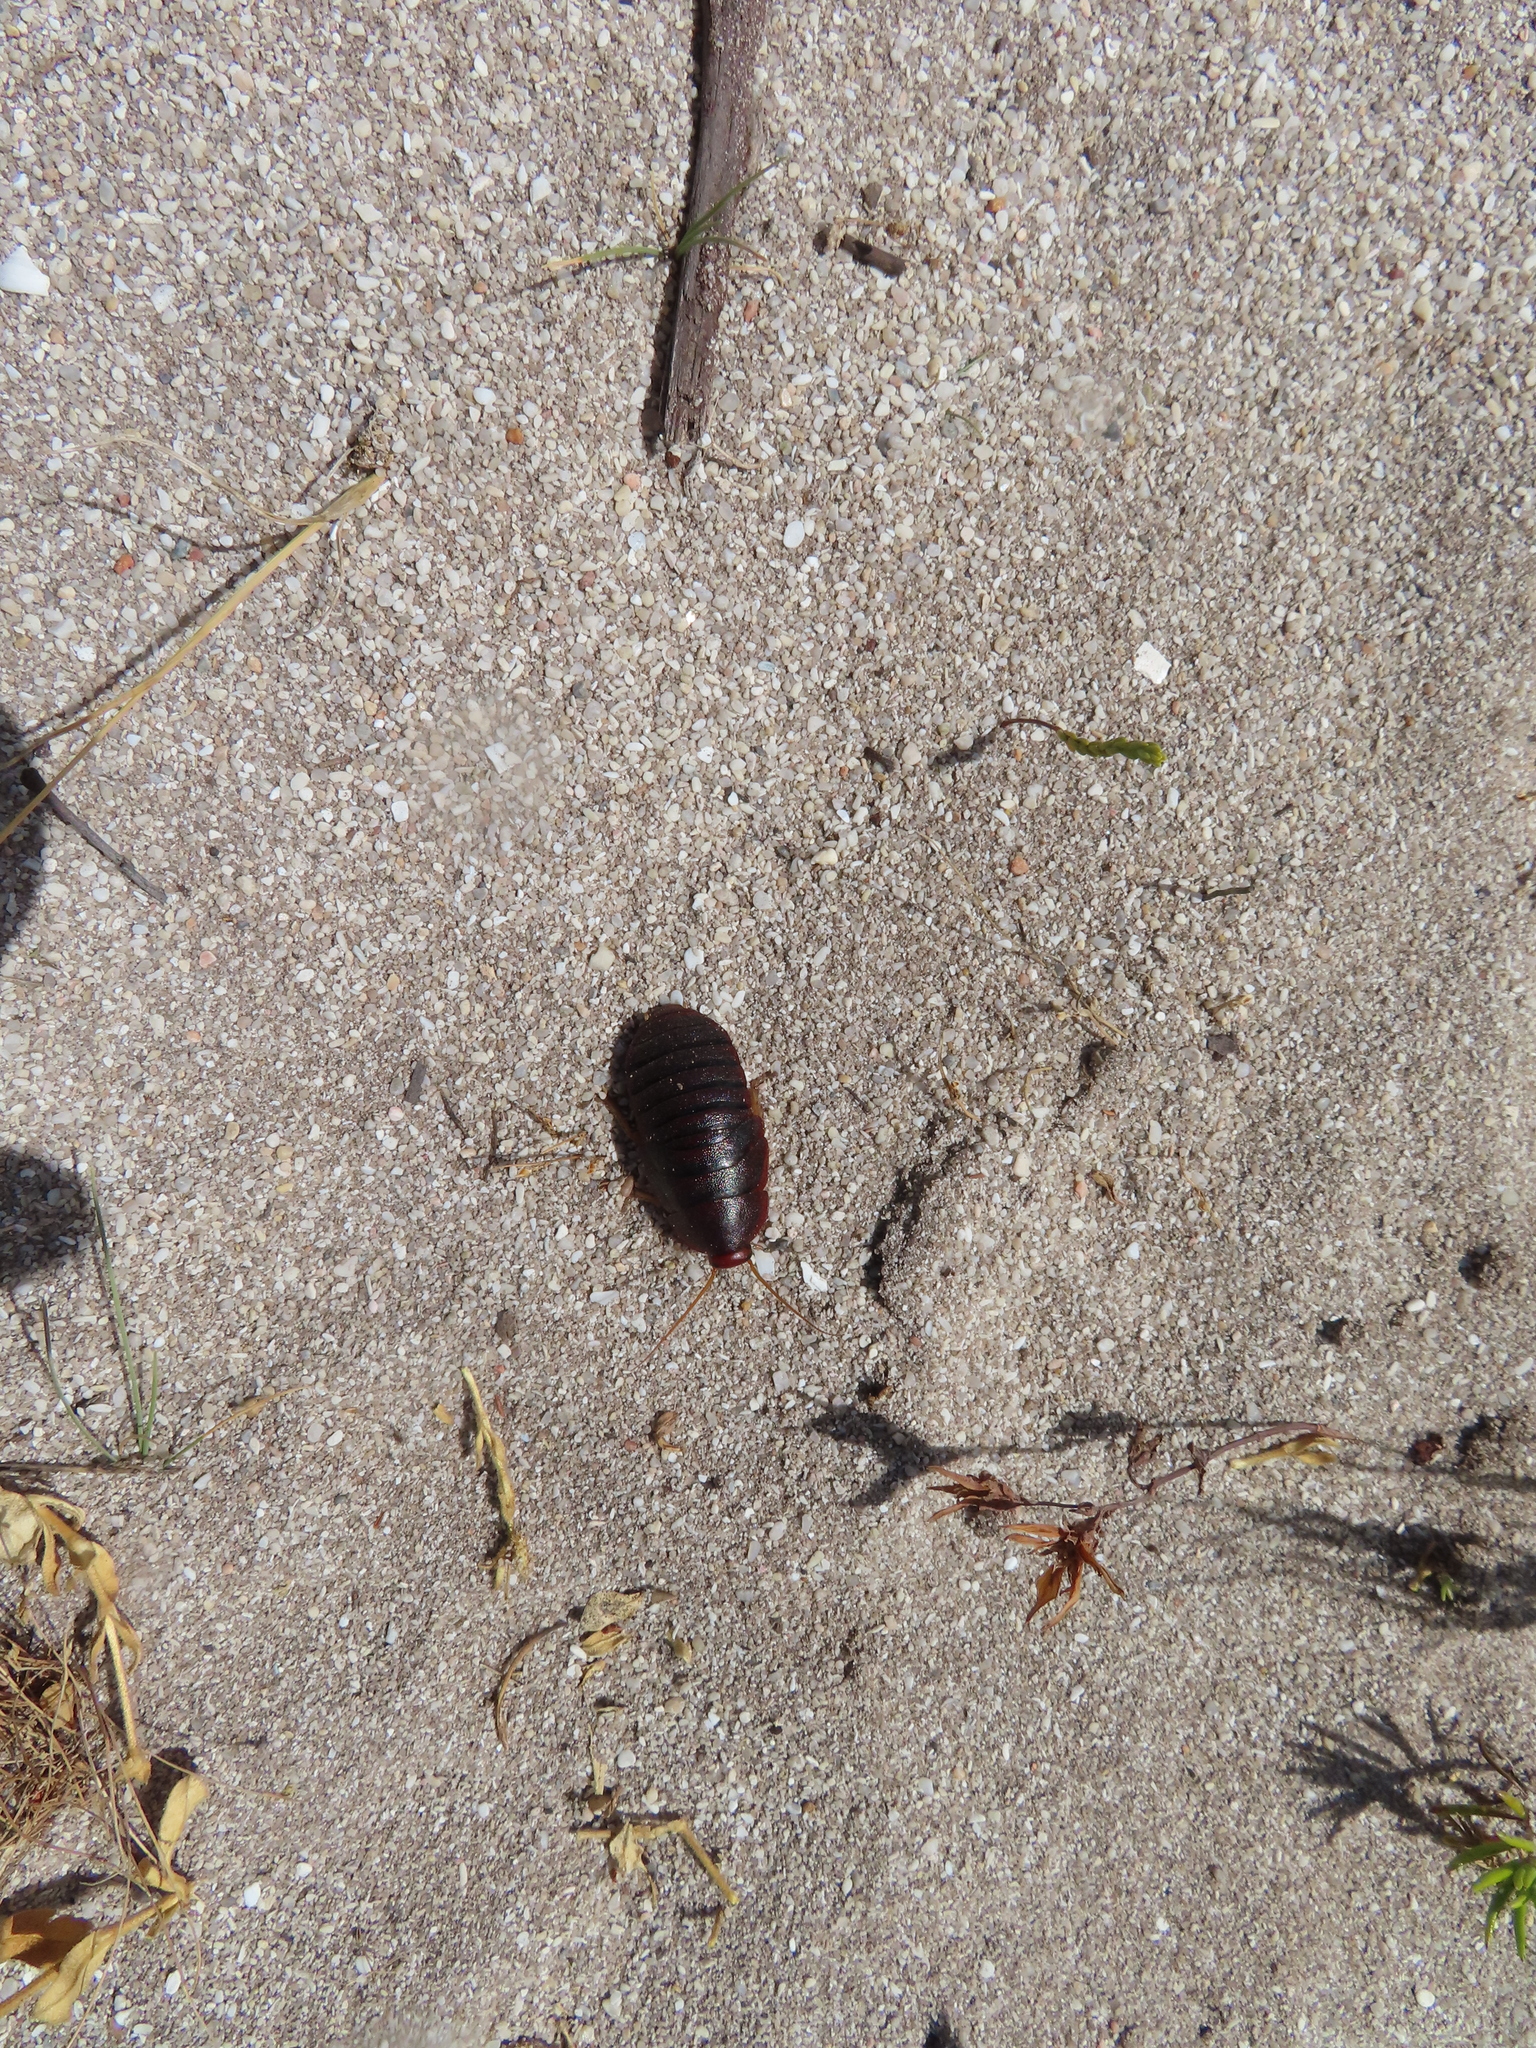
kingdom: Animalia
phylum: Arthropoda
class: Insecta
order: Blattodea
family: Blaberidae
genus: Aptera
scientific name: Aptera fusca
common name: Cape mountain cockroach
